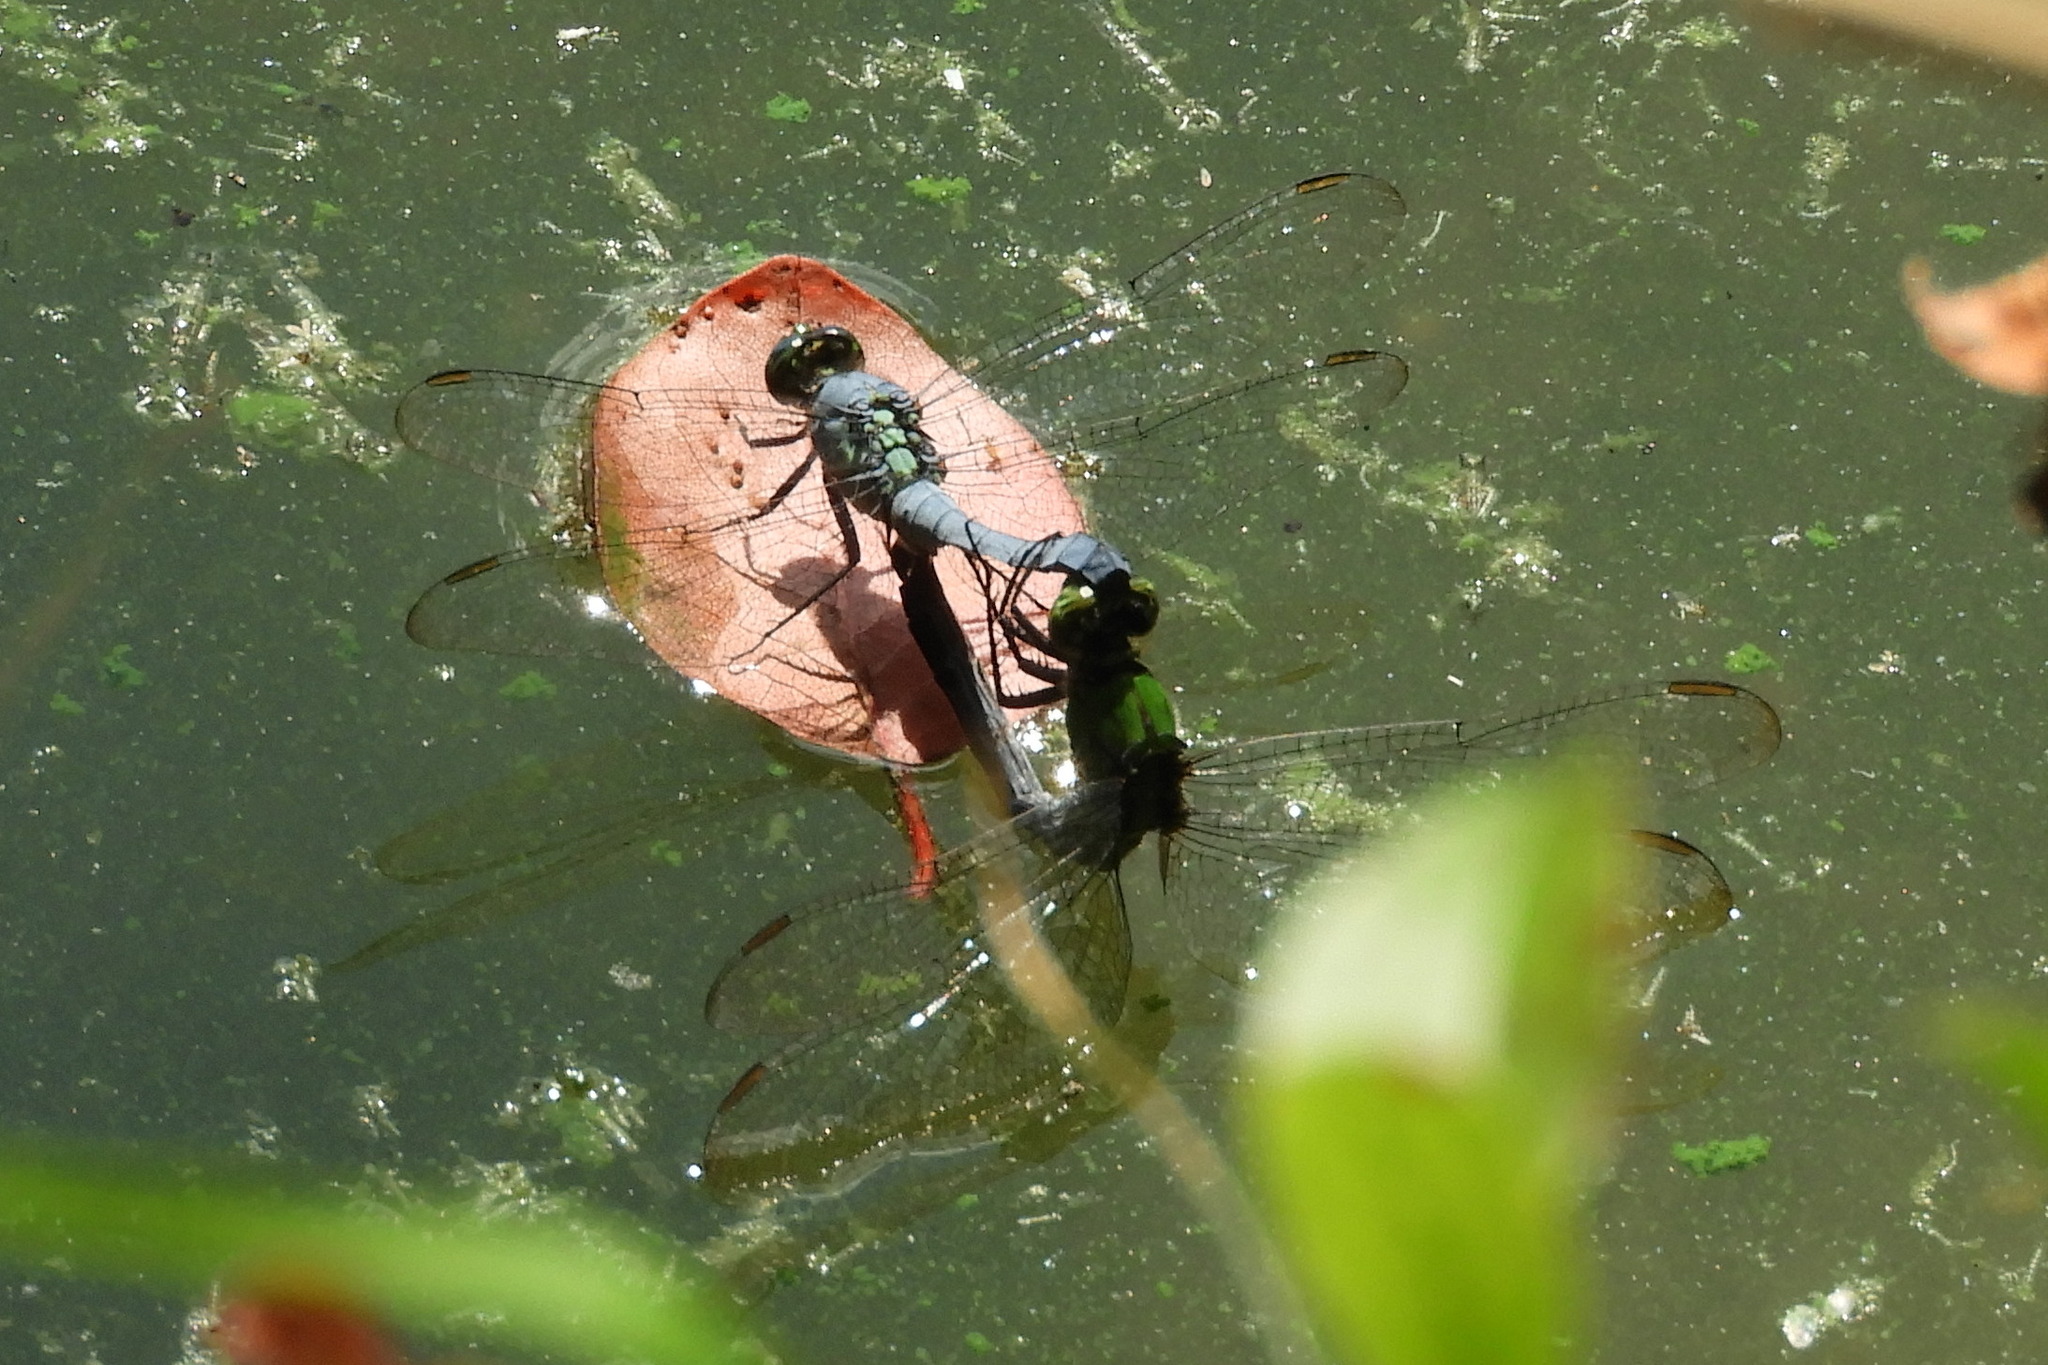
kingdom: Animalia
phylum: Arthropoda
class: Insecta
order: Odonata
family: Libellulidae
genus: Erythemis
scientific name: Erythemis simplicicollis
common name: Eastern pondhawk
